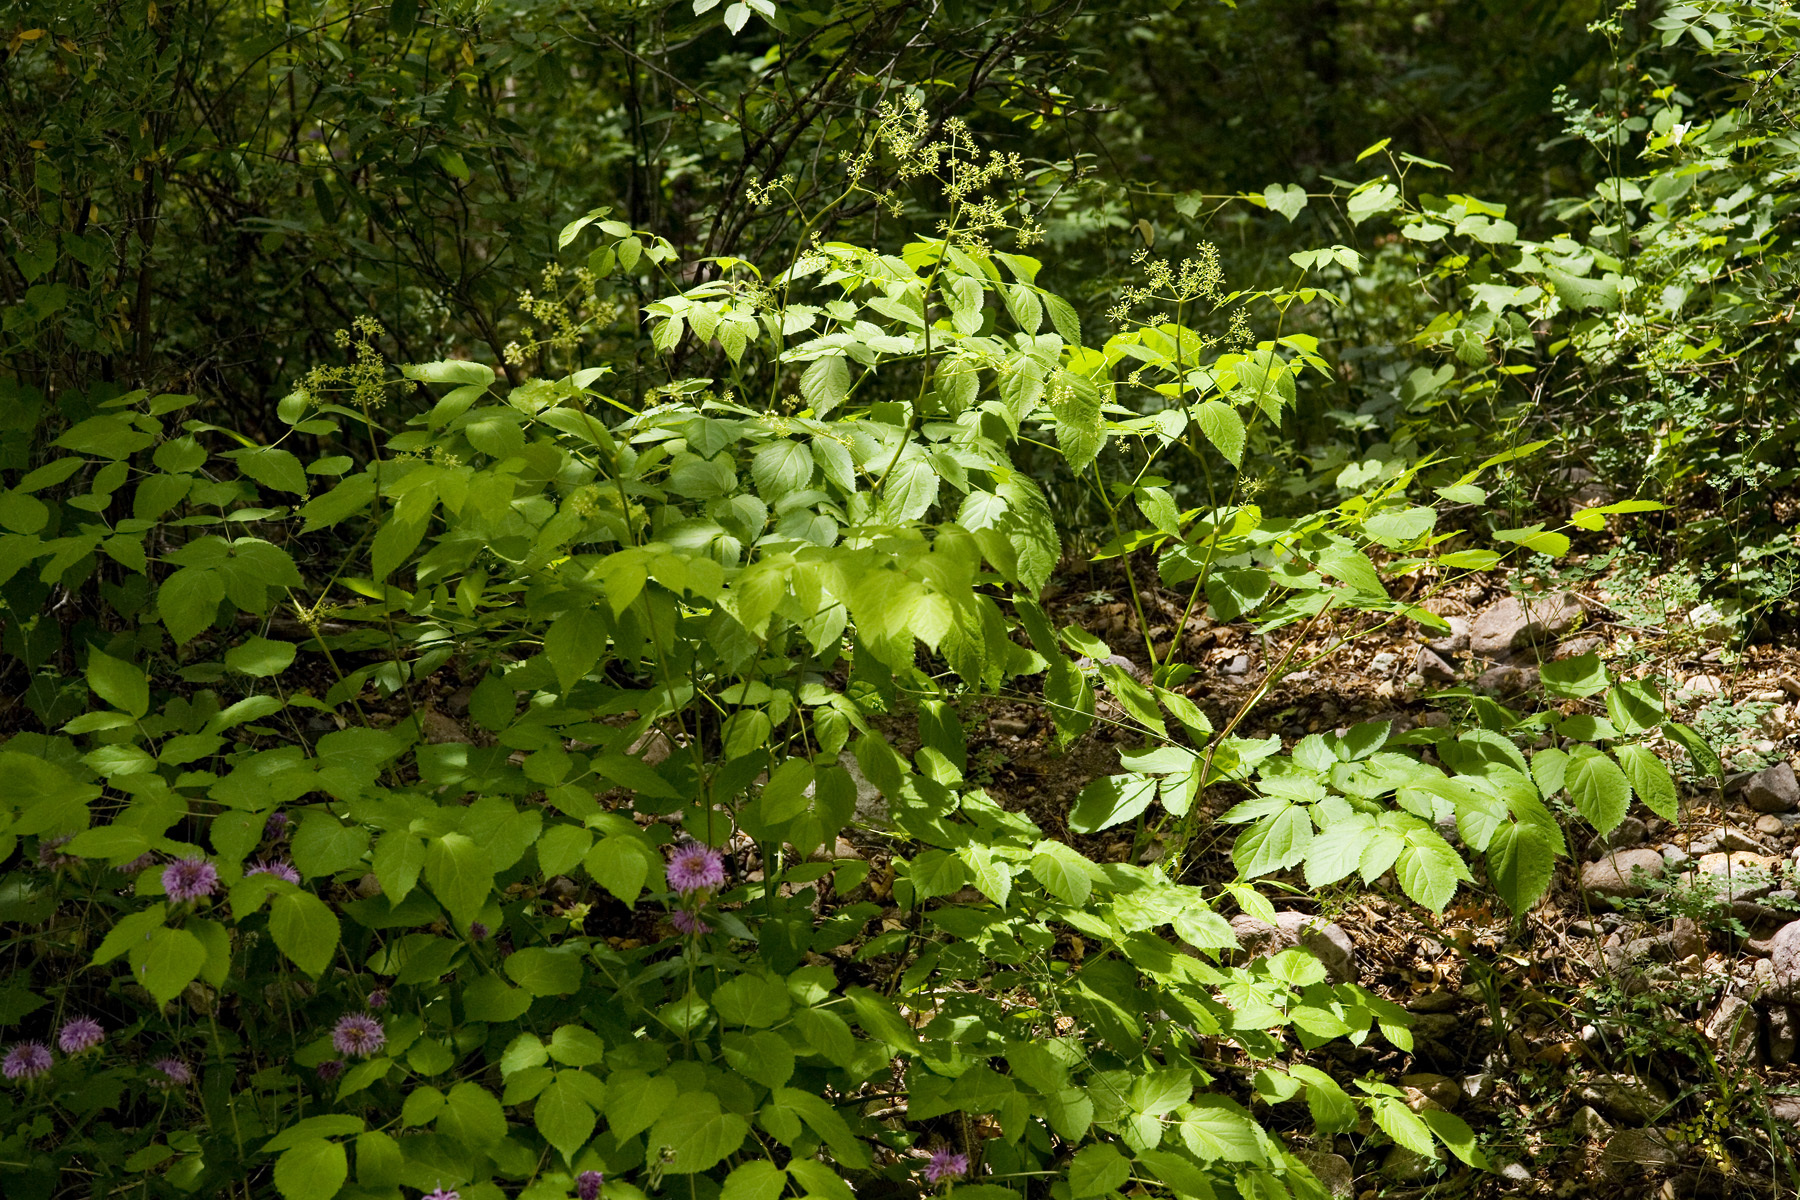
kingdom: Plantae
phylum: Tracheophyta
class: Magnoliopsida
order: Apiales
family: Araliaceae
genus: Aralia
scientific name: Aralia bicrenata
